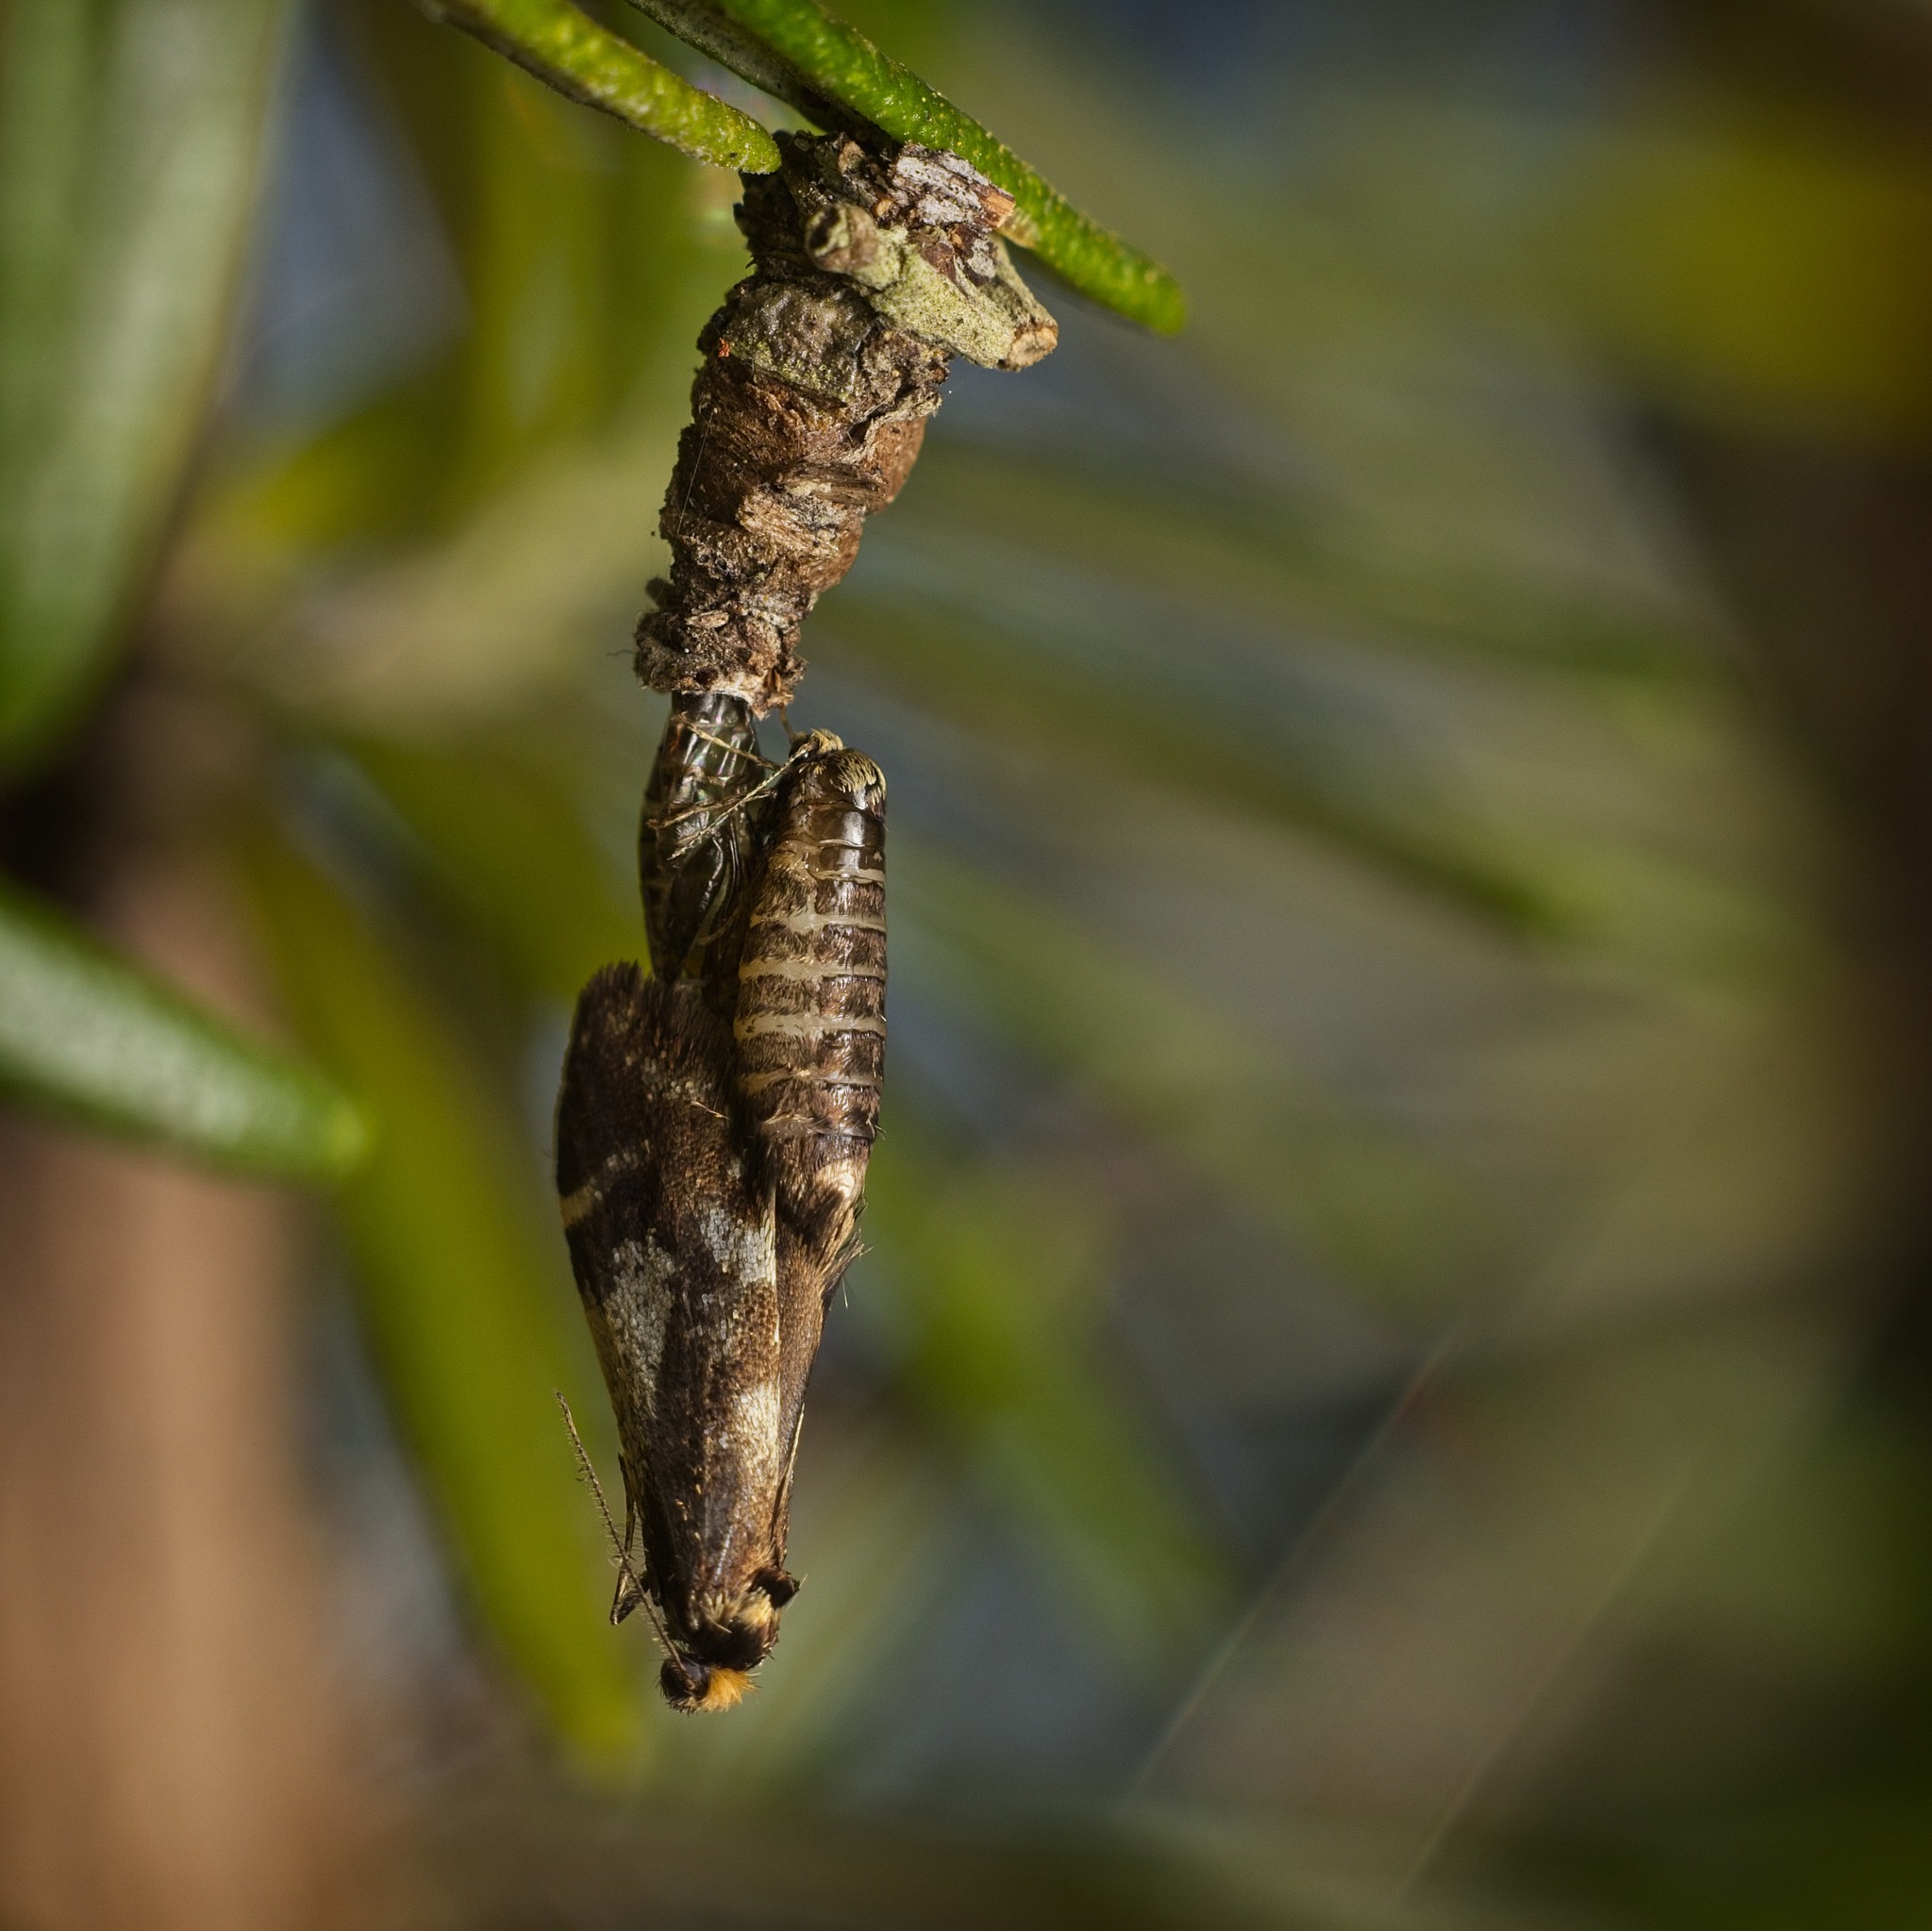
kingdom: Animalia
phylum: Arthropoda
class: Insecta
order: Lepidoptera
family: Psychidae
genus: Lepidoscia
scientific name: Lepidoscia lainodes
